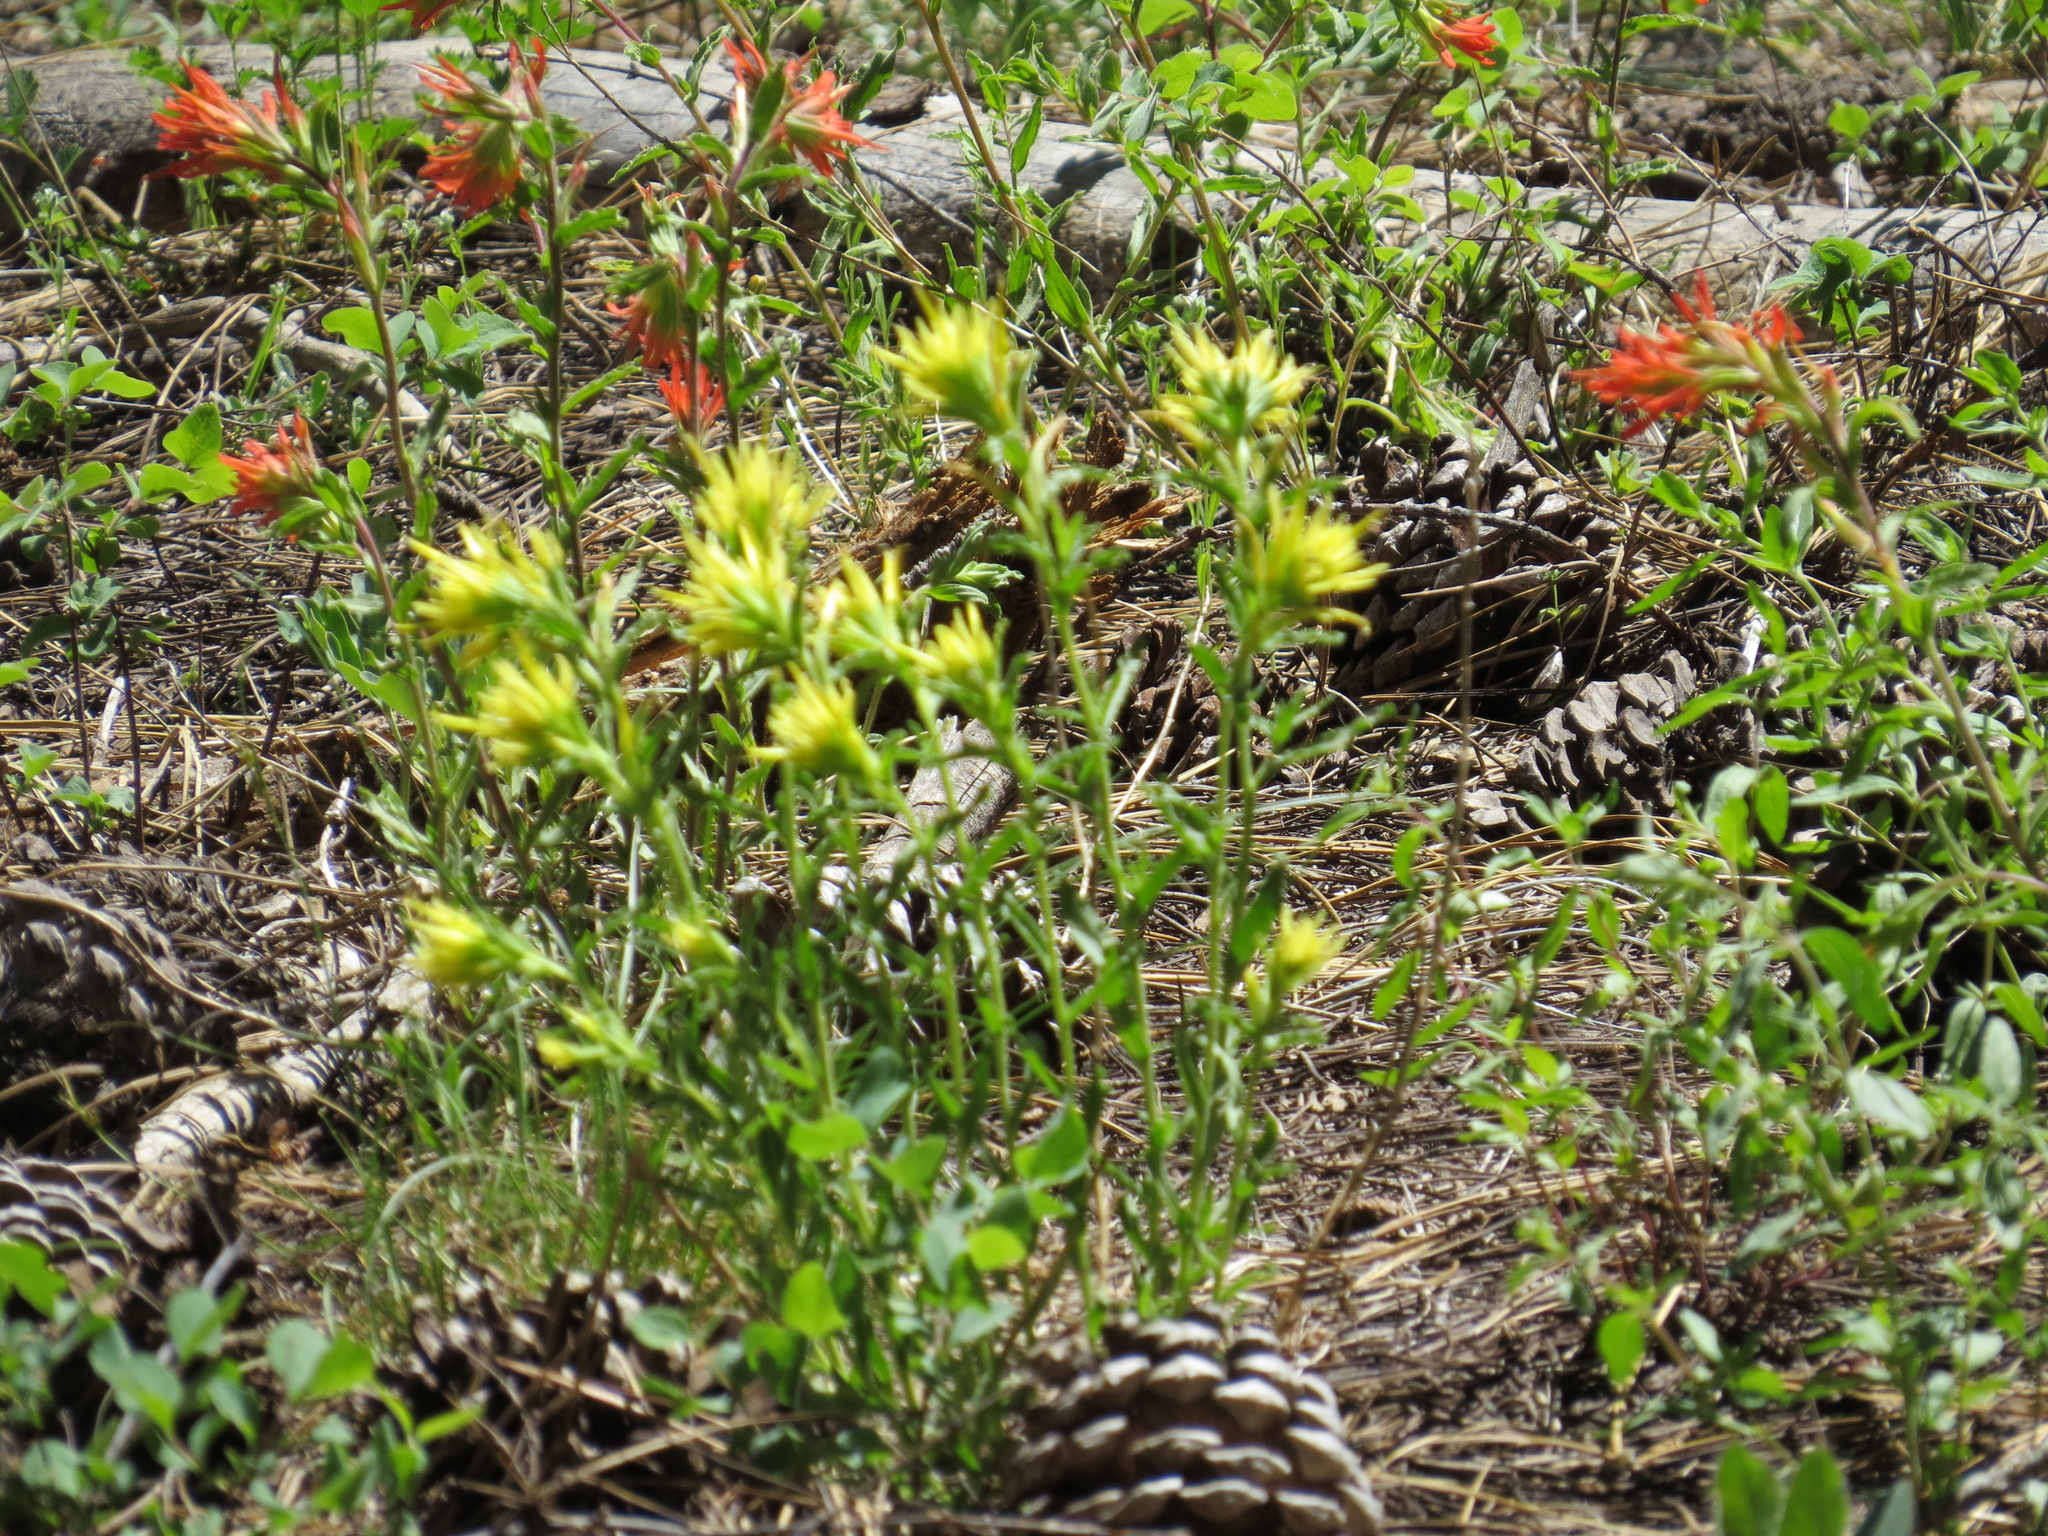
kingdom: Plantae
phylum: Tracheophyta
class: Magnoliopsida
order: Lamiales
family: Orobanchaceae
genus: Castilleja
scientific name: Castilleja applegatei
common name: Wavy-leaf paintbrush
